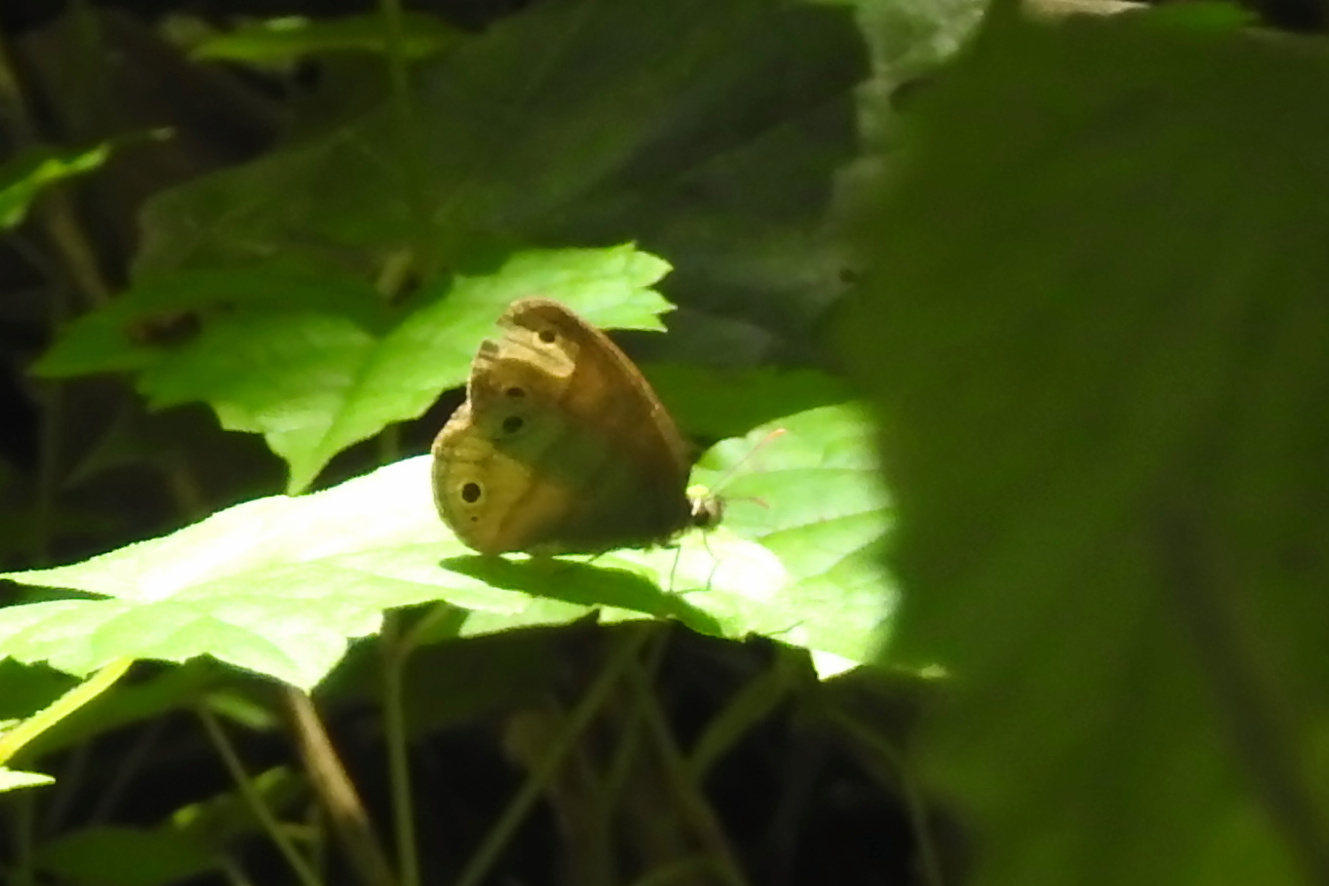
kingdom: Animalia
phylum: Arthropoda
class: Insecta
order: Lepidoptera
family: Nymphalidae
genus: Euptychia
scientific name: Euptychia cymela
